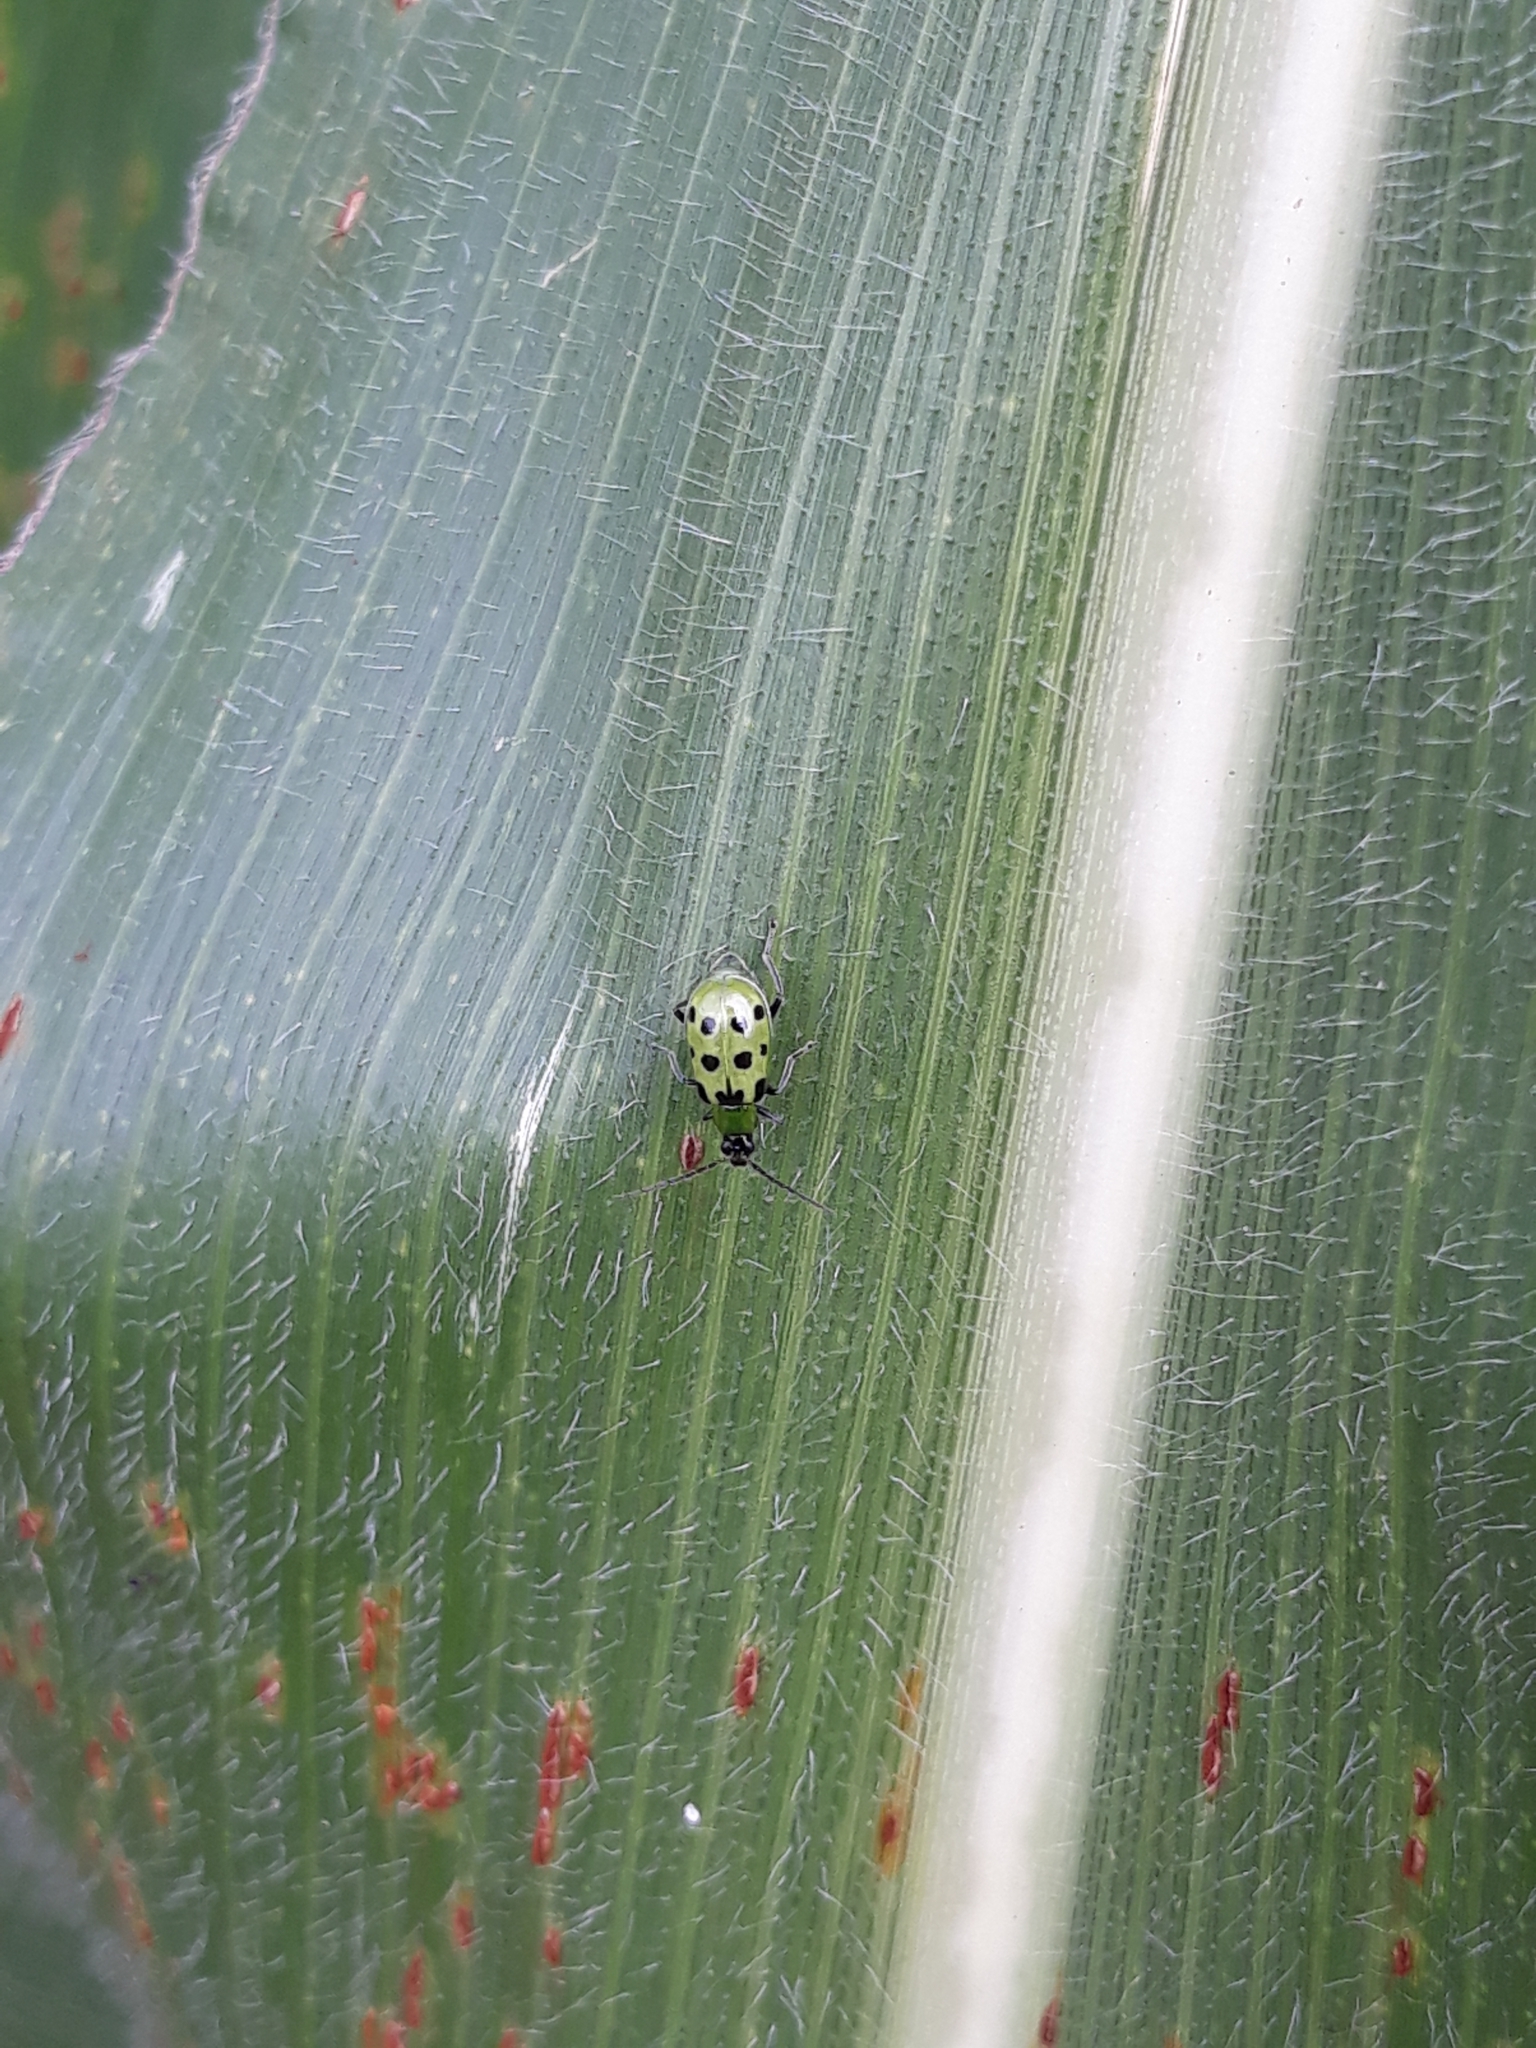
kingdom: Animalia
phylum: Arthropoda
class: Insecta
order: Coleoptera
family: Chrysomelidae
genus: Diabrotica
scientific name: Diabrotica undecimpunctata
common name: Spotted cucumber beetle
